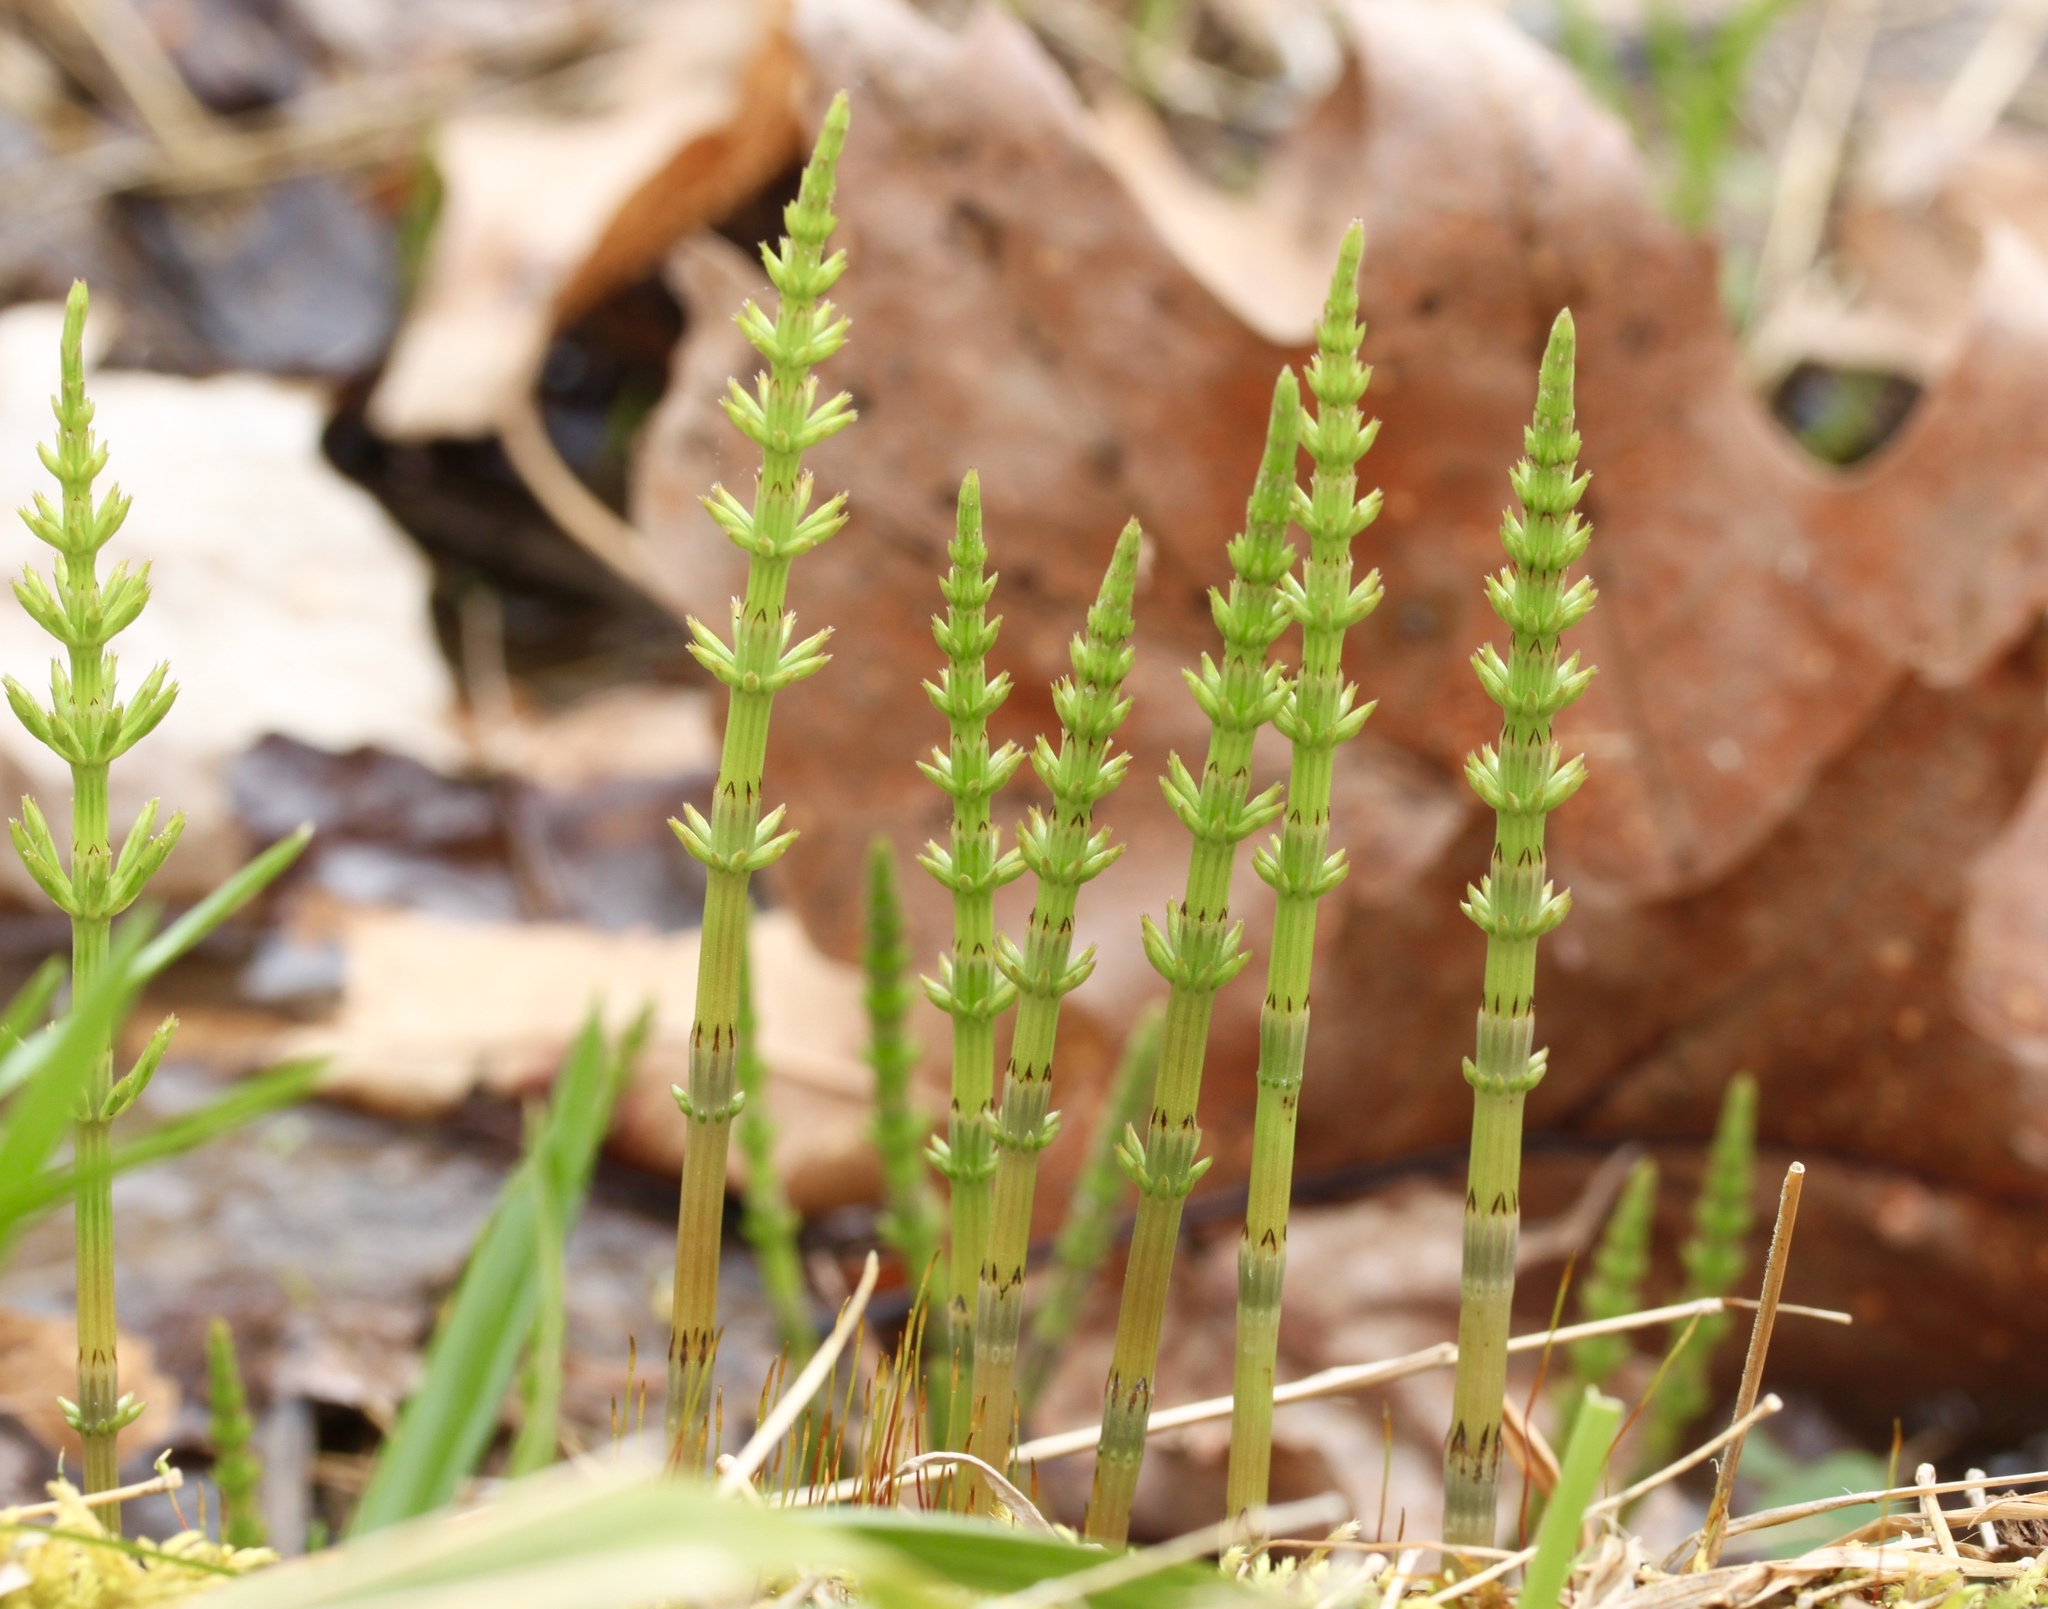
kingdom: Plantae
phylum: Tracheophyta
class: Polypodiopsida
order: Equisetales
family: Equisetaceae
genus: Equisetum
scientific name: Equisetum arvense
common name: Field horsetail
